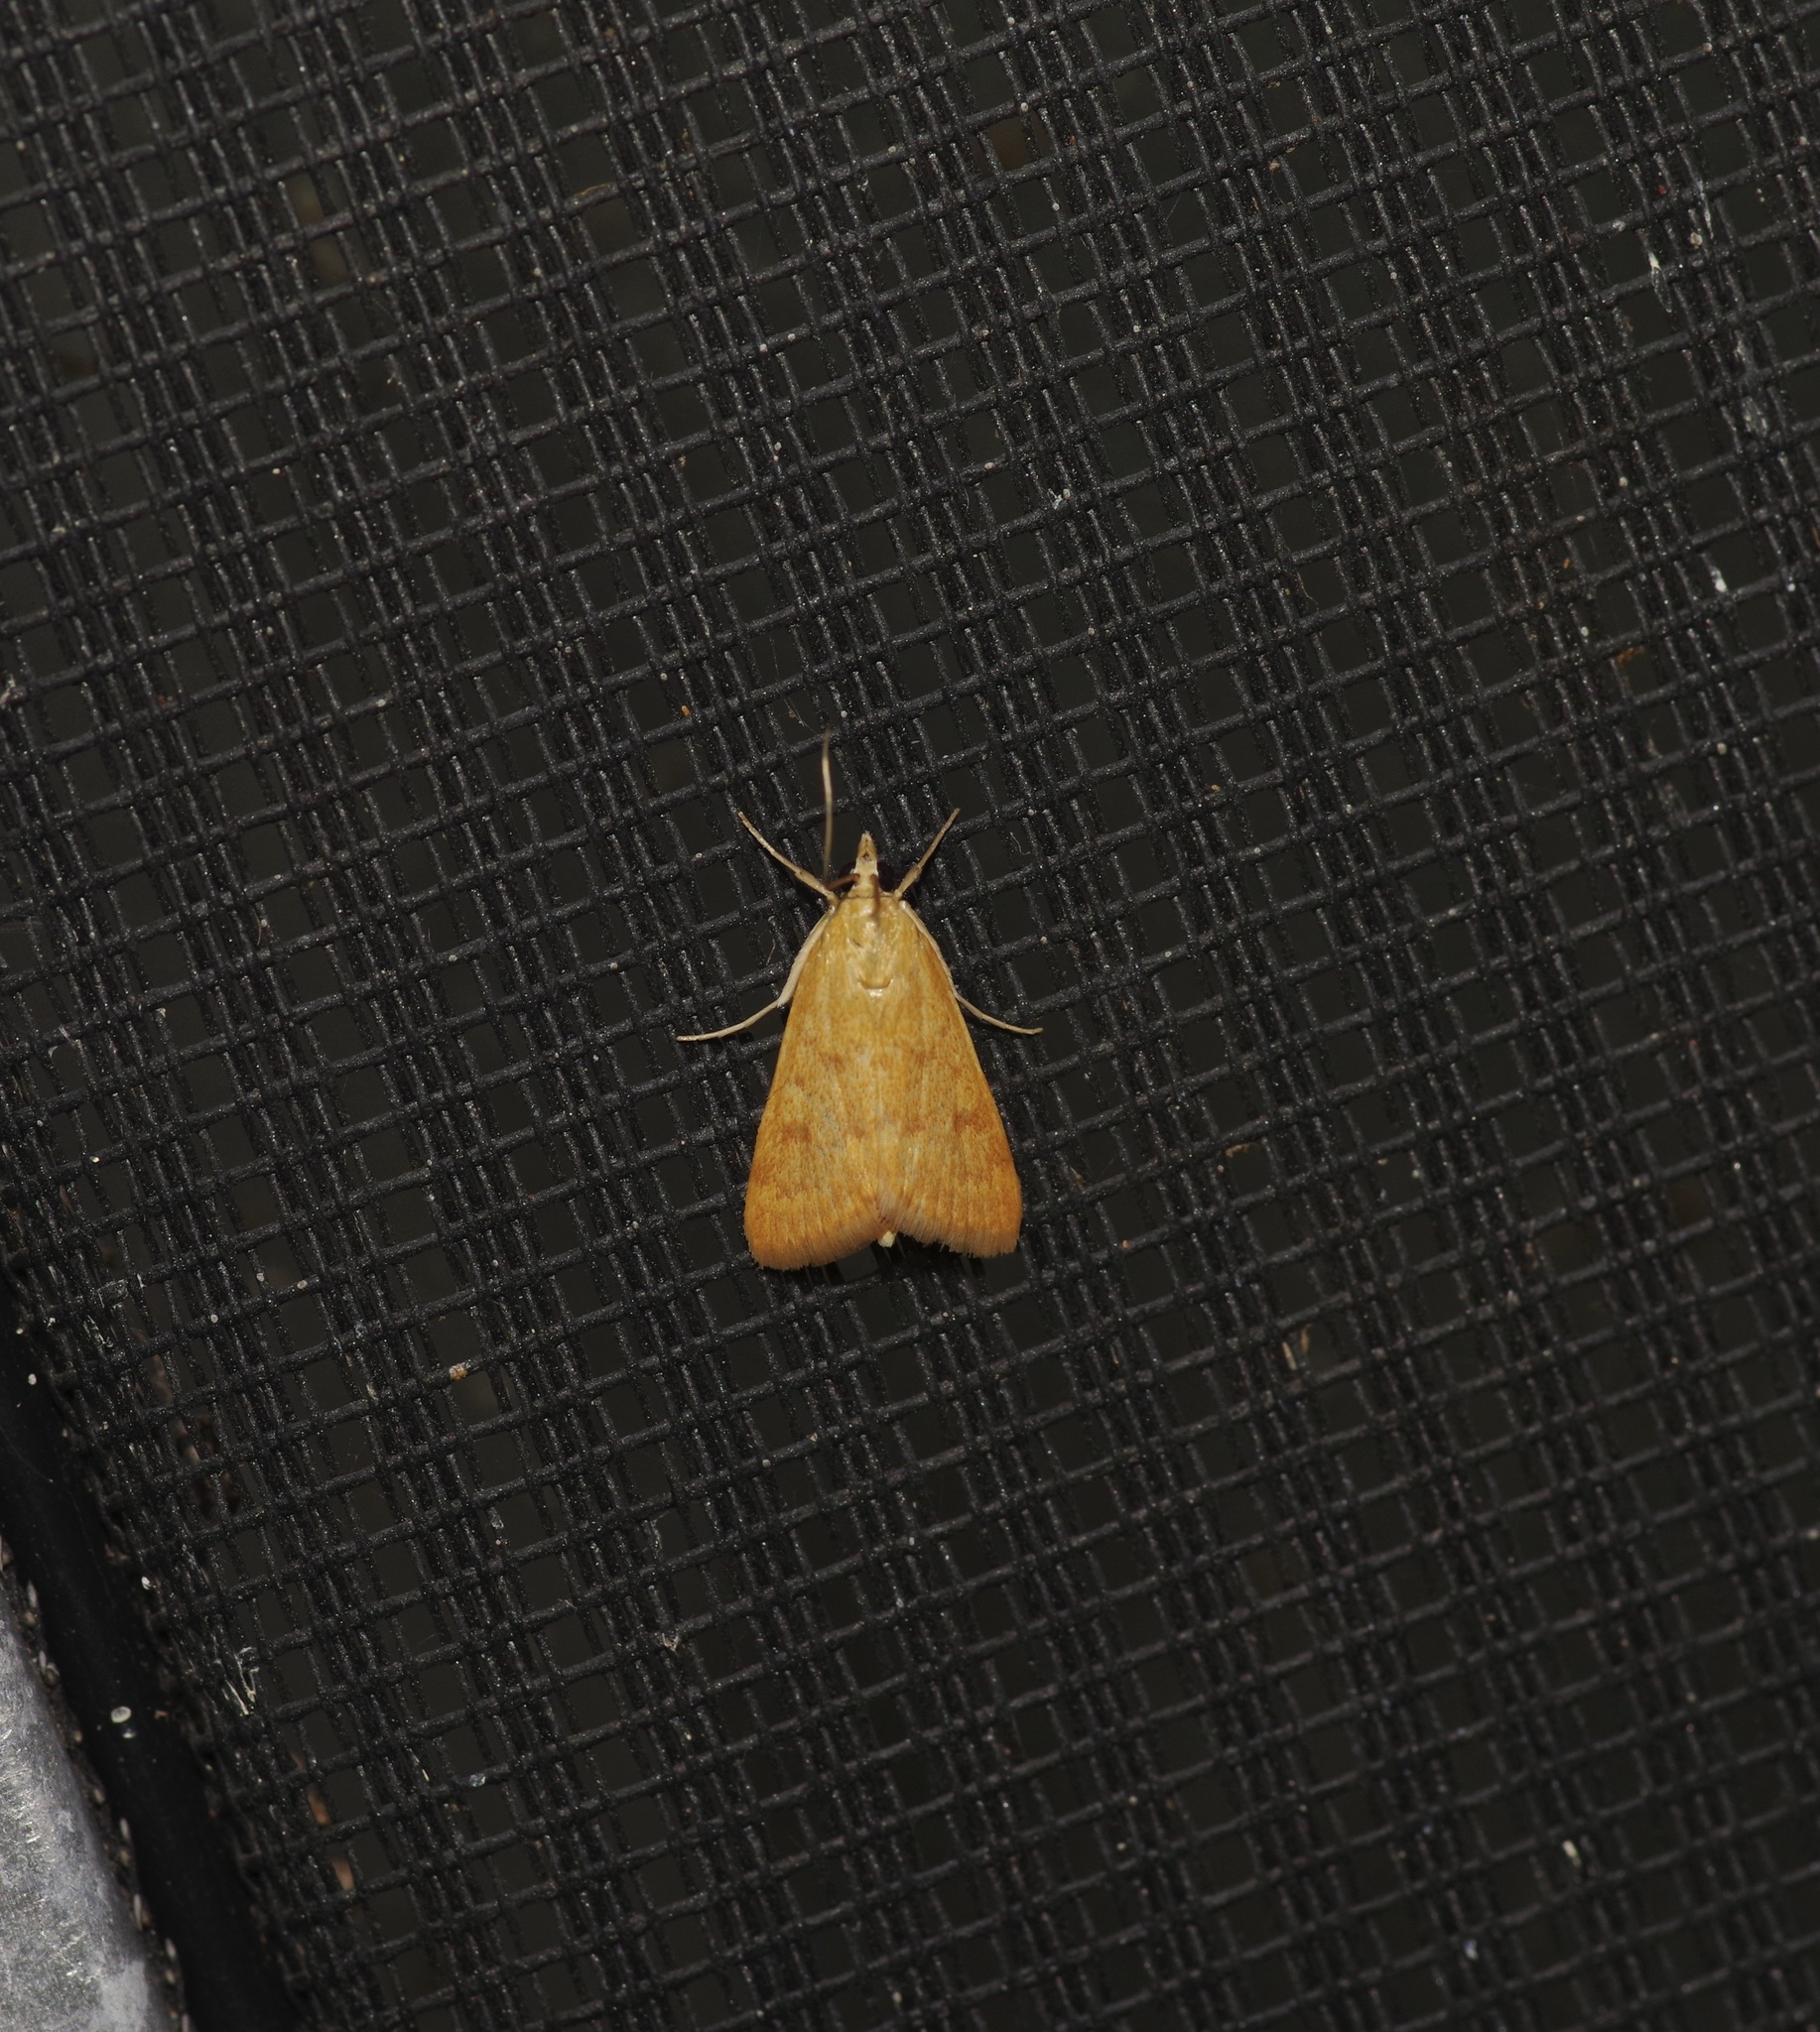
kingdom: Animalia
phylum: Arthropoda
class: Insecta
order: Lepidoptera
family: Crambidae
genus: Achyra
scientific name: Achyra rantalis
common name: Garden webworm
